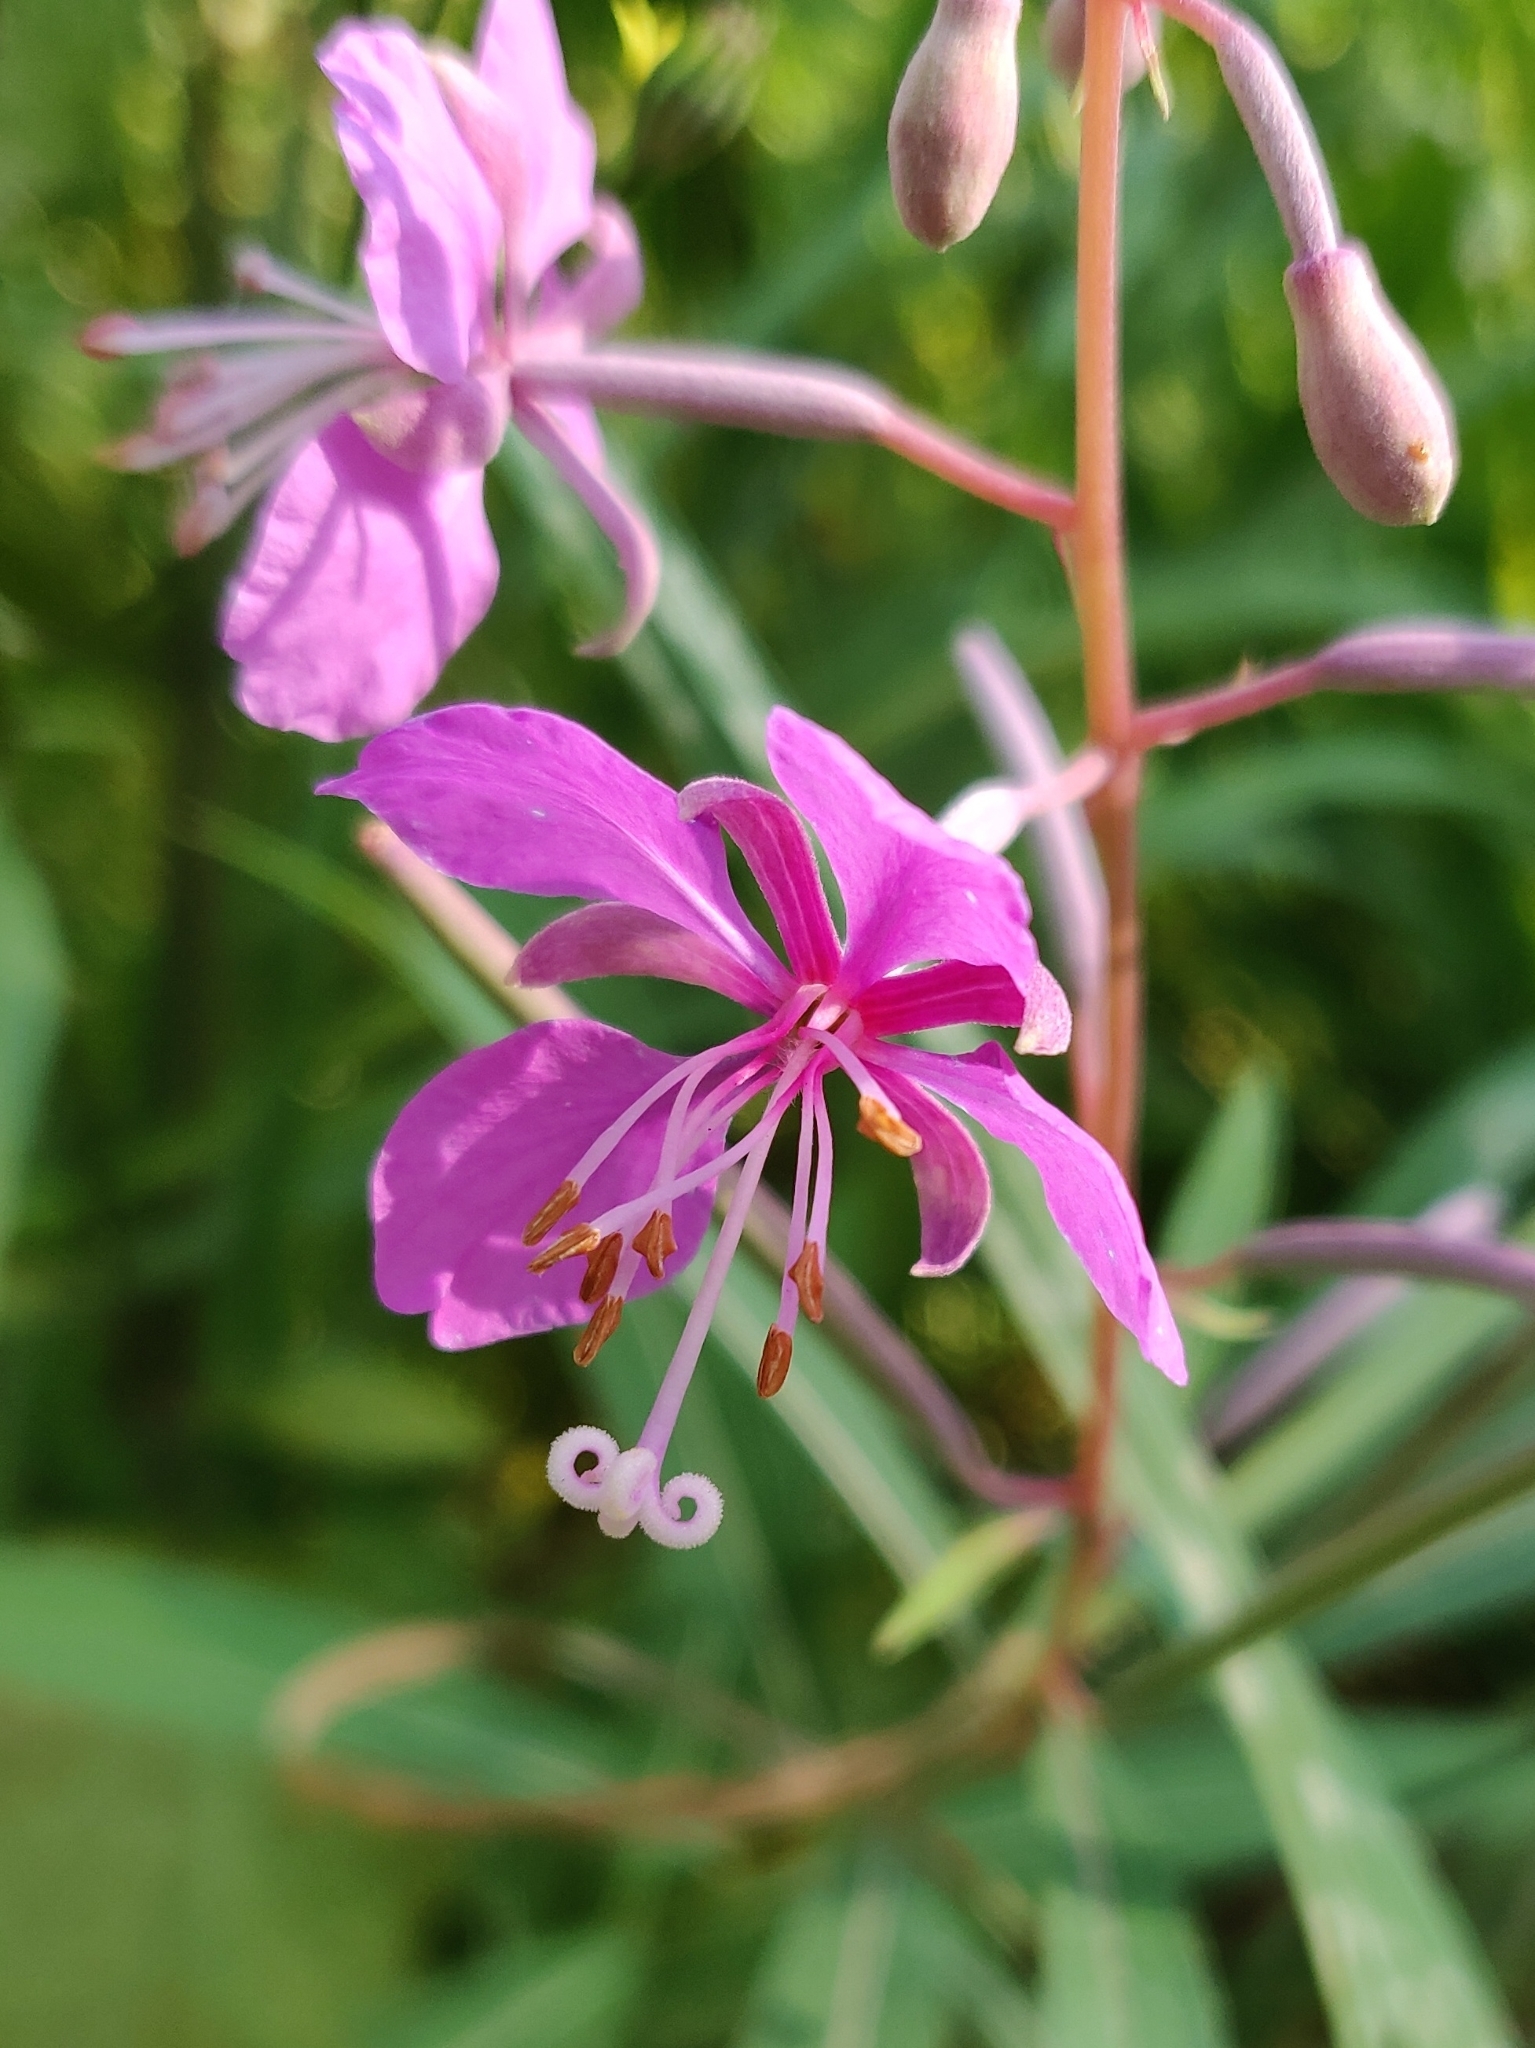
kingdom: Plantae
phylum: Tracheophyta
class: Magnoliopsida
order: Myrtales
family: Onagraceae
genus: Chamaenerion
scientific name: Chamaenerion angustifolium
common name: Fireweed
